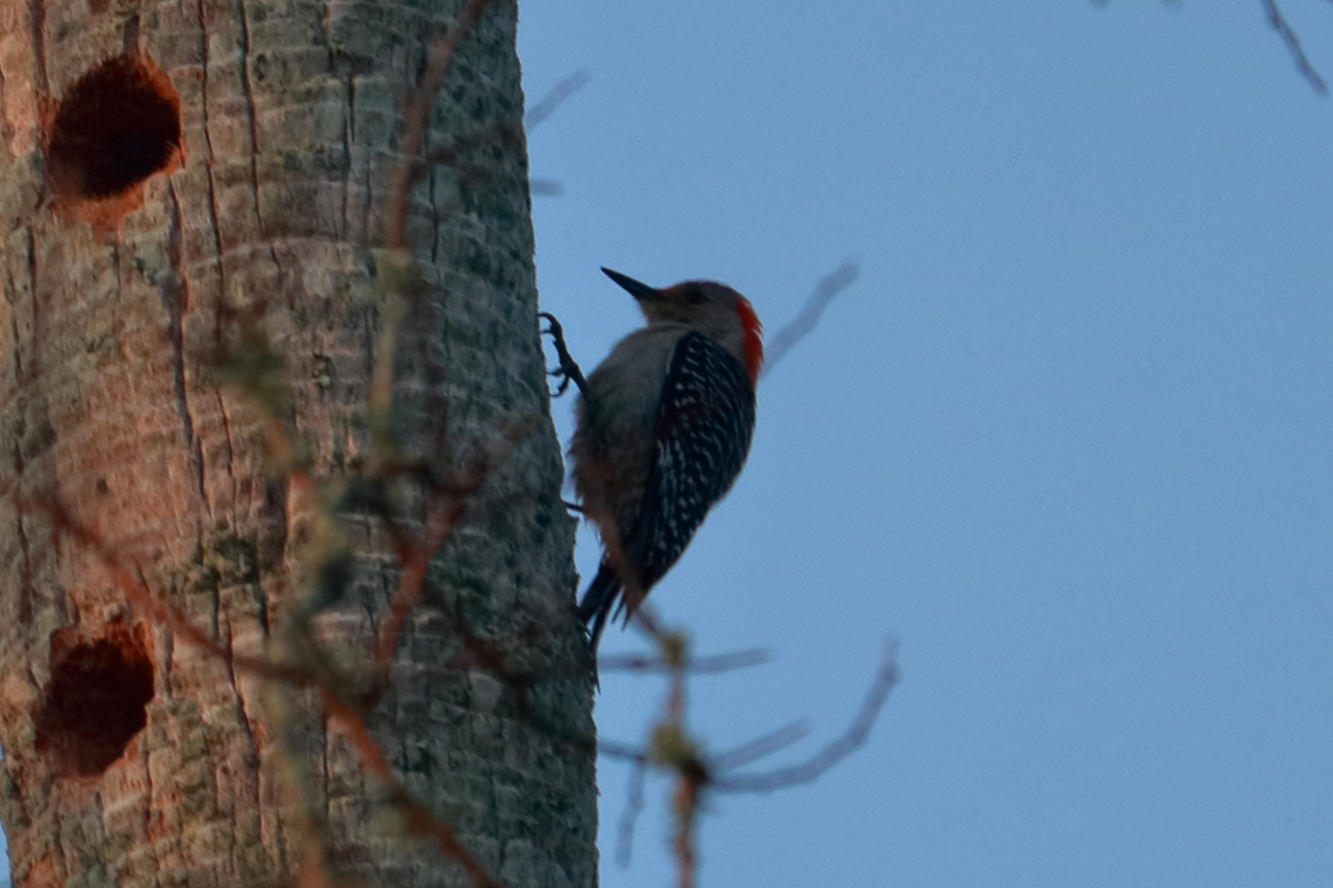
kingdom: Animalia
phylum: Chordata
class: Aves
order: Piciformes
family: Picidae
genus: Melanerpes
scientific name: Melanerpes carolinus
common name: Red-bellied woodpecker
